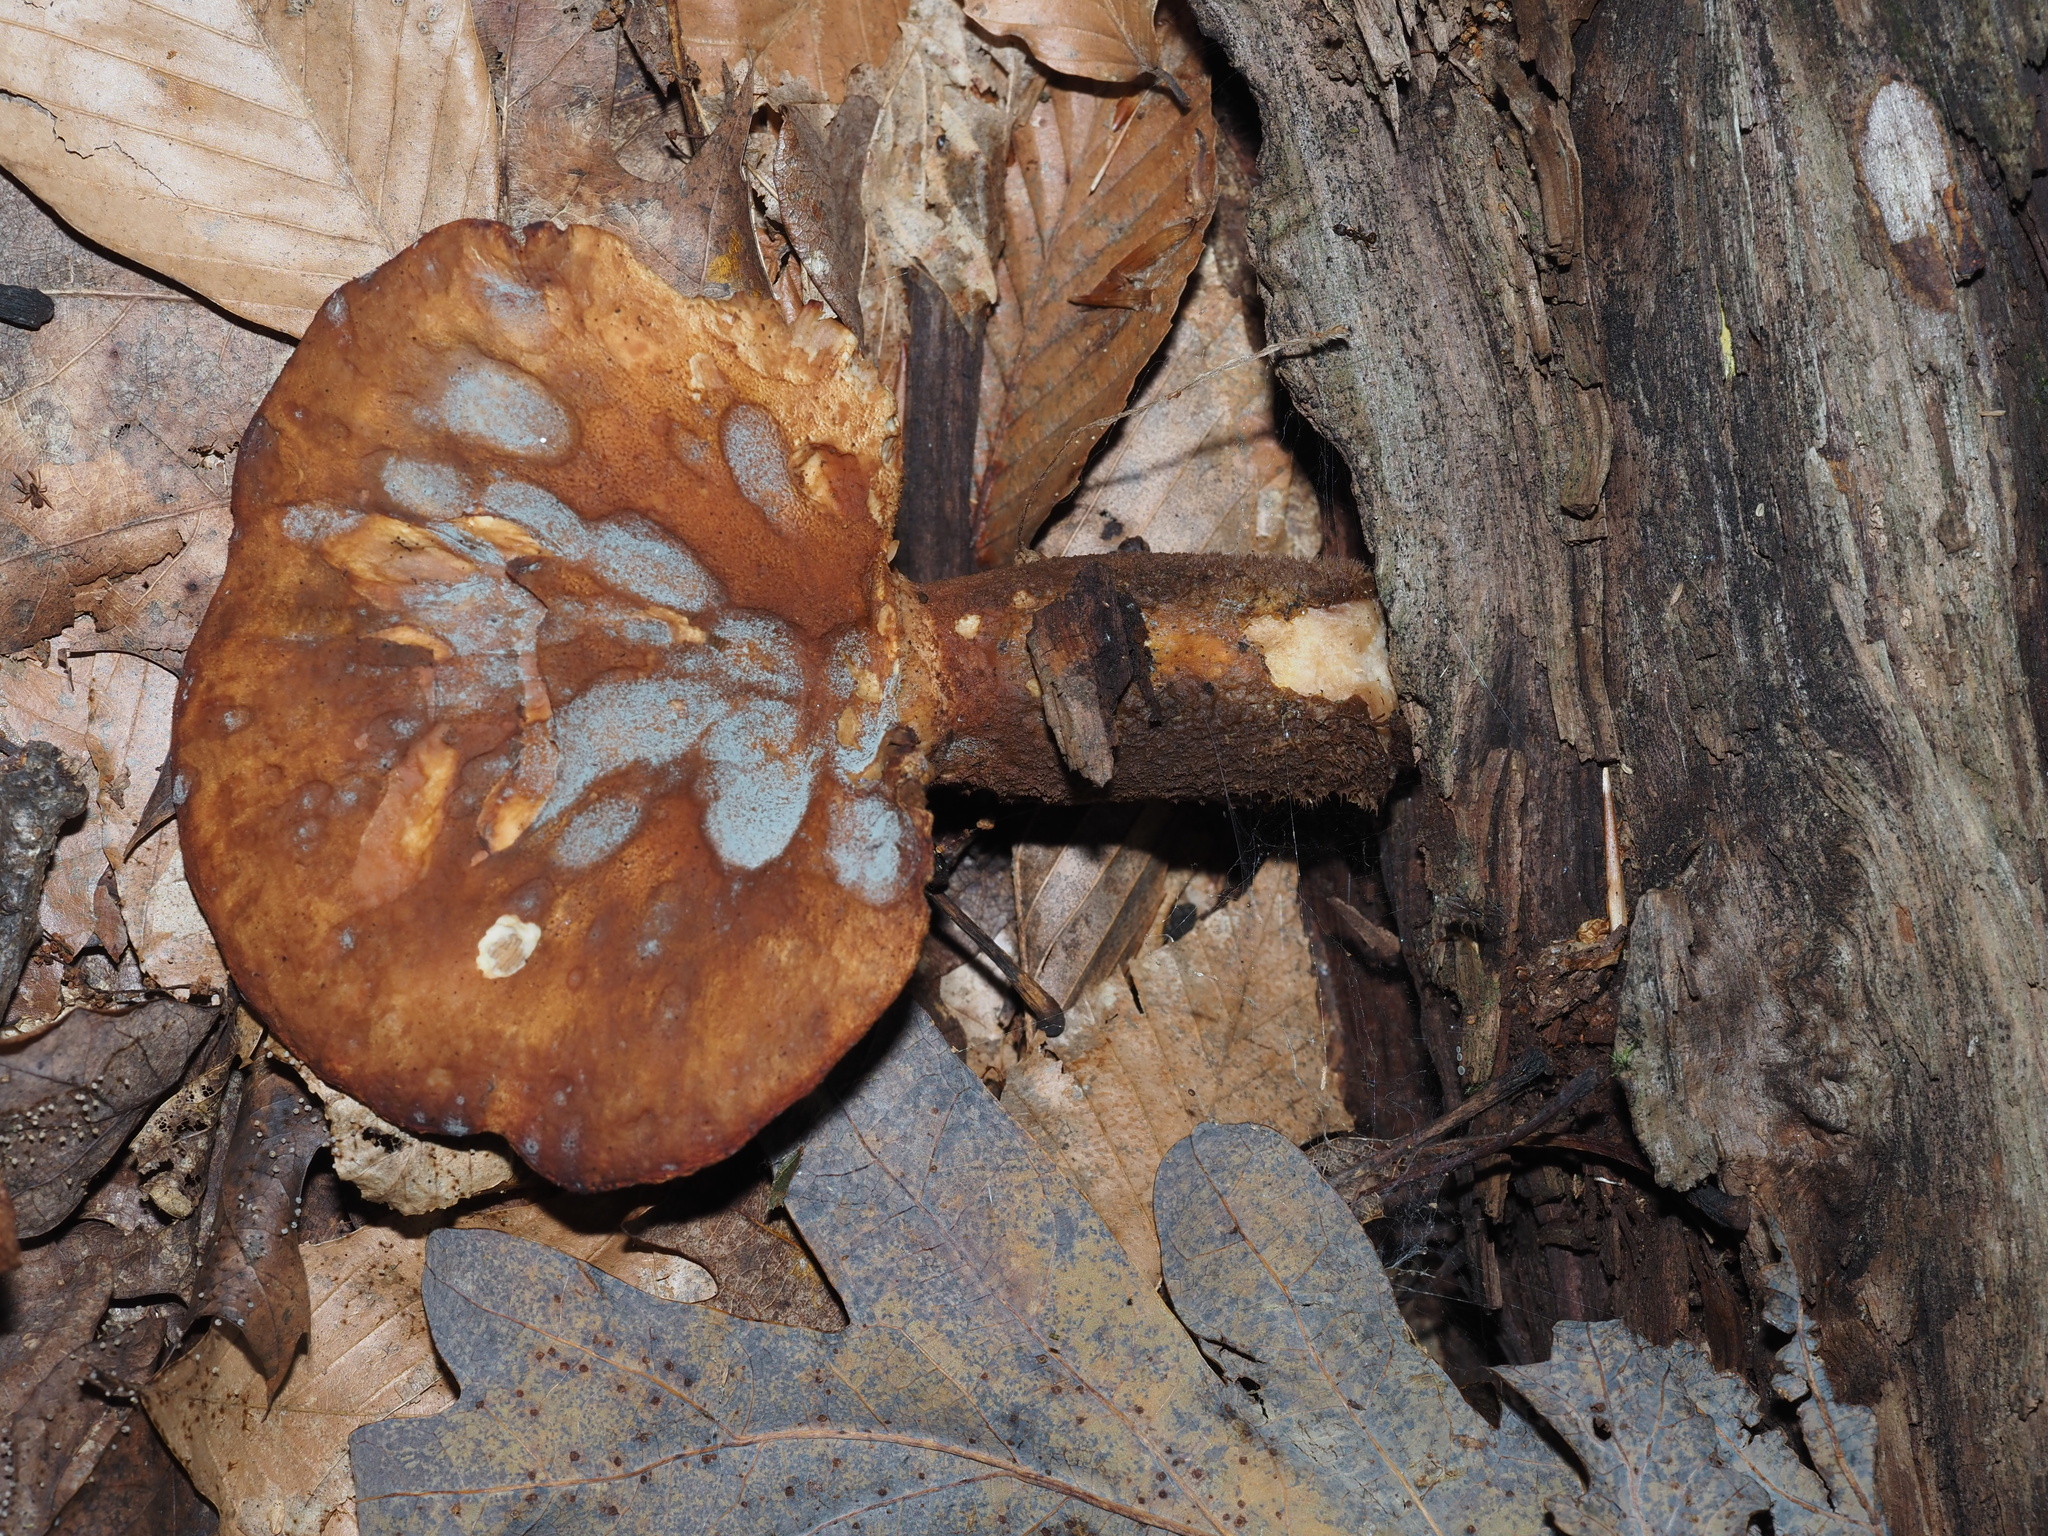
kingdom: Fungi
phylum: Basidiomycota
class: Agaricomycetes
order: Boletales
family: Tapinellaceae
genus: Tapinella
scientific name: Tapinella atrotomentosa
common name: Velvet rollrim
